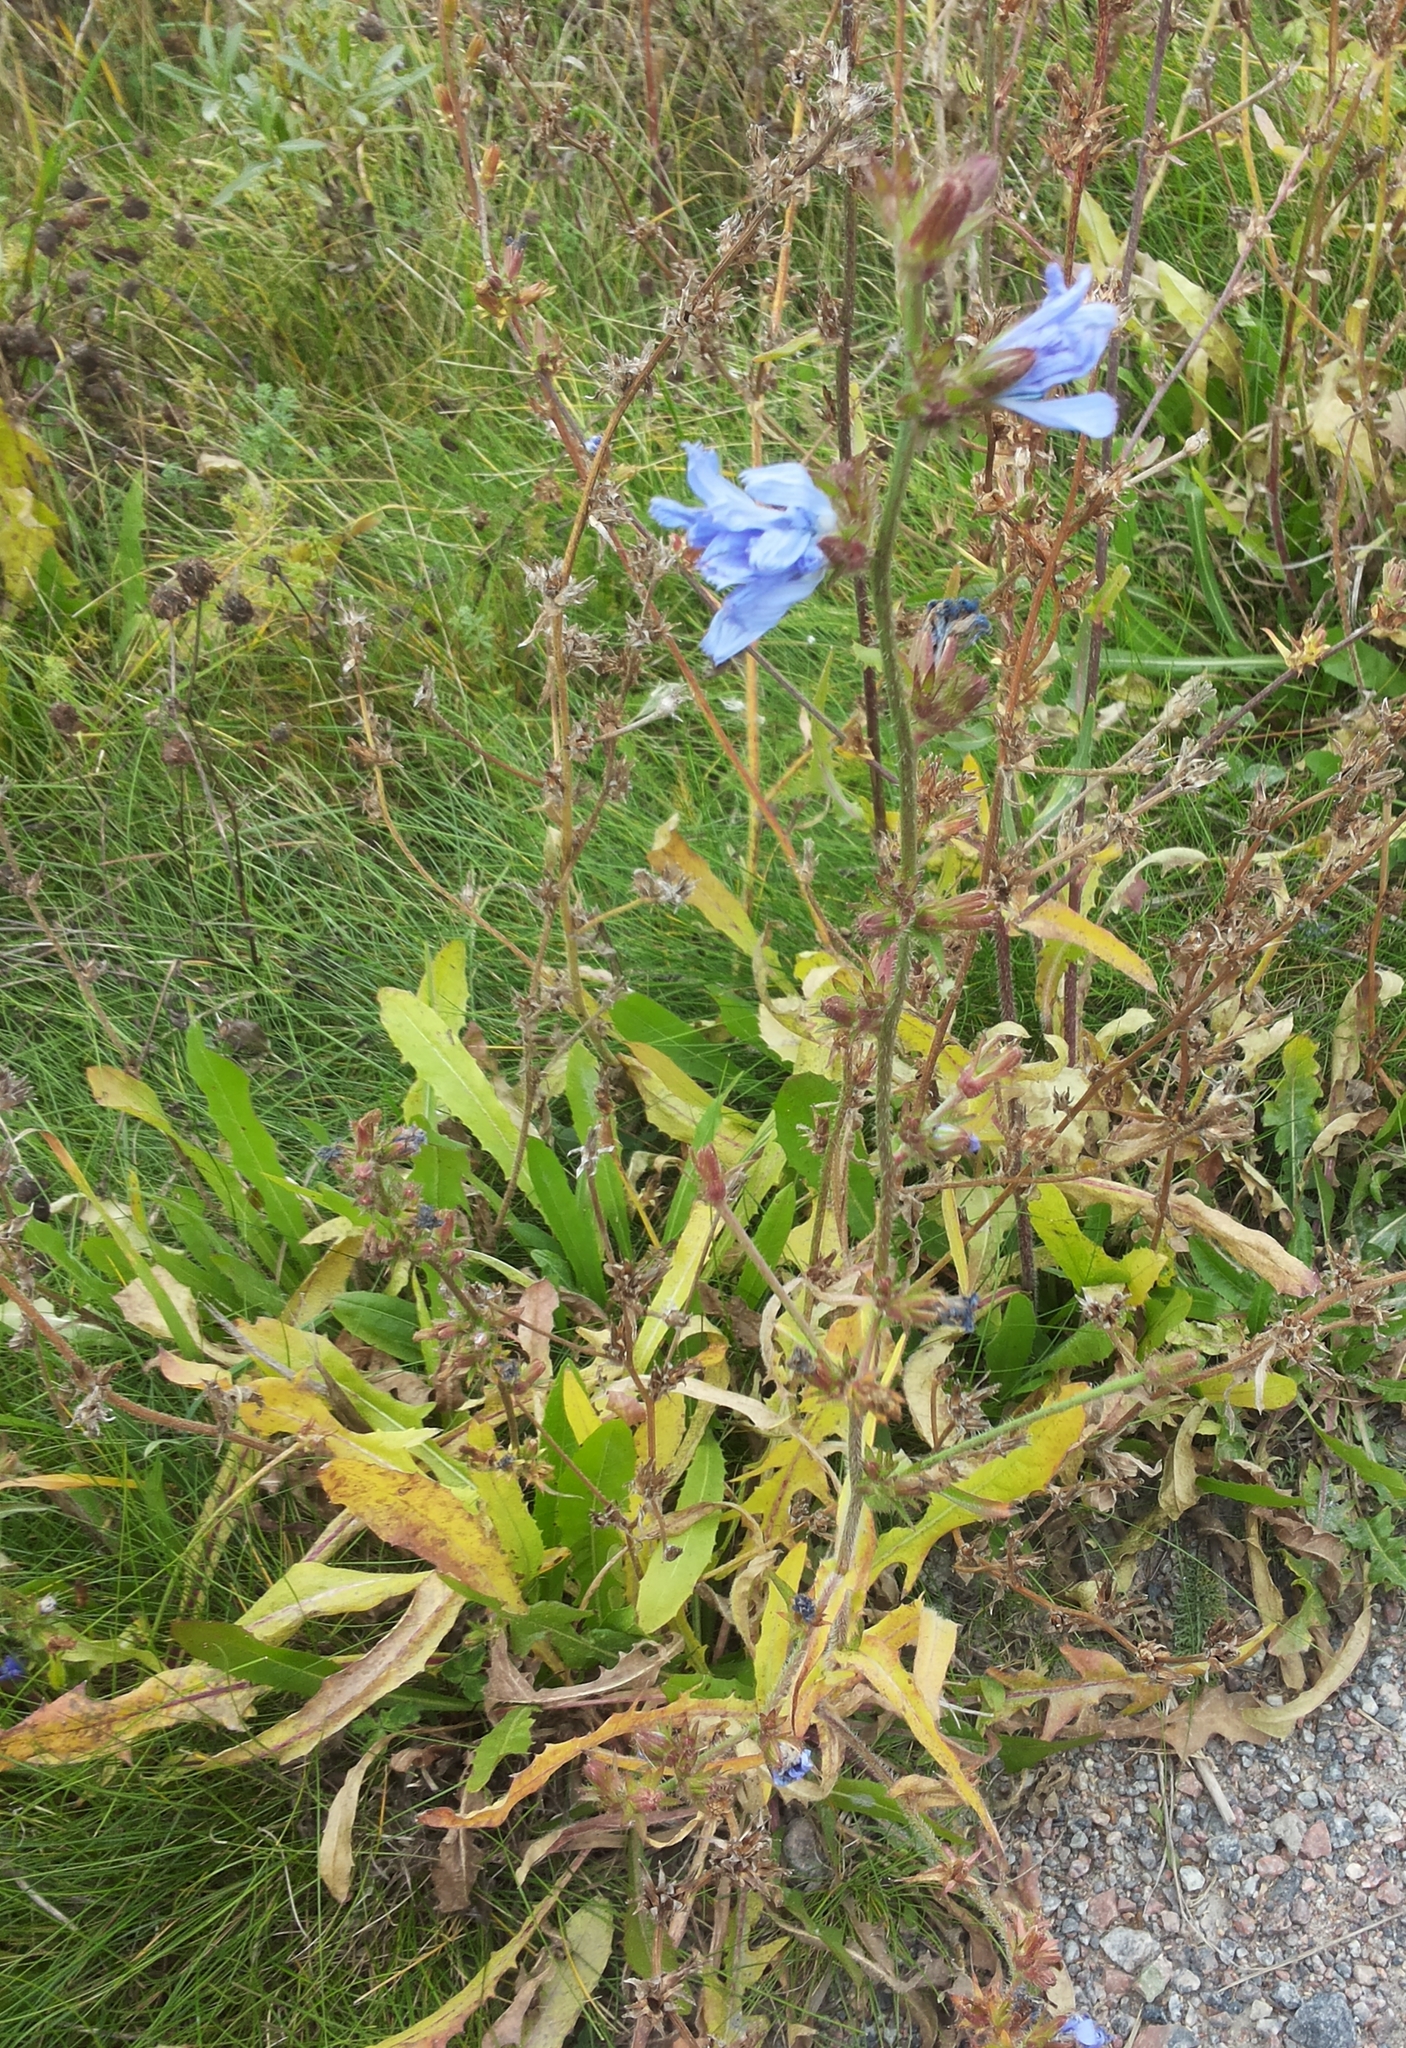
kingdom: Plantae
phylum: Tracheophyta
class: Magnoliopsida
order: Asterales
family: Asteraceae
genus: Cichorium
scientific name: Cichorium intybus
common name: Chicory
